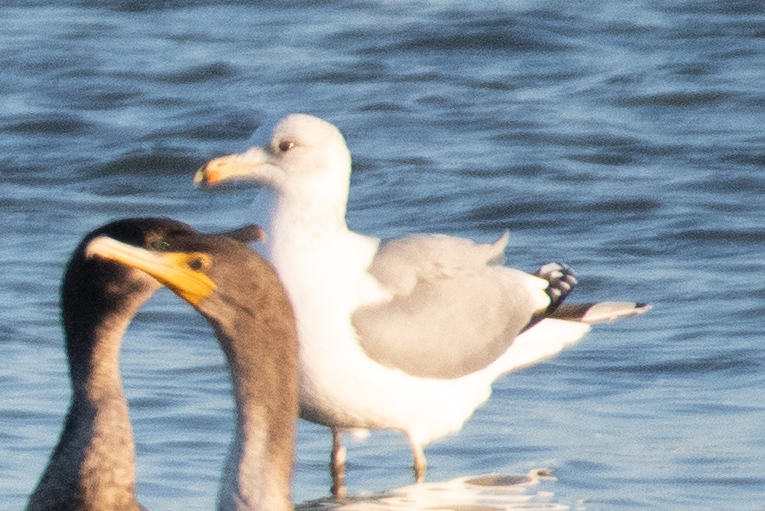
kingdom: Animalia
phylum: Chordata
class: Aves
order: Charadriiformes
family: Laridae
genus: Larus
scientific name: Larus californicus
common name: California gull
